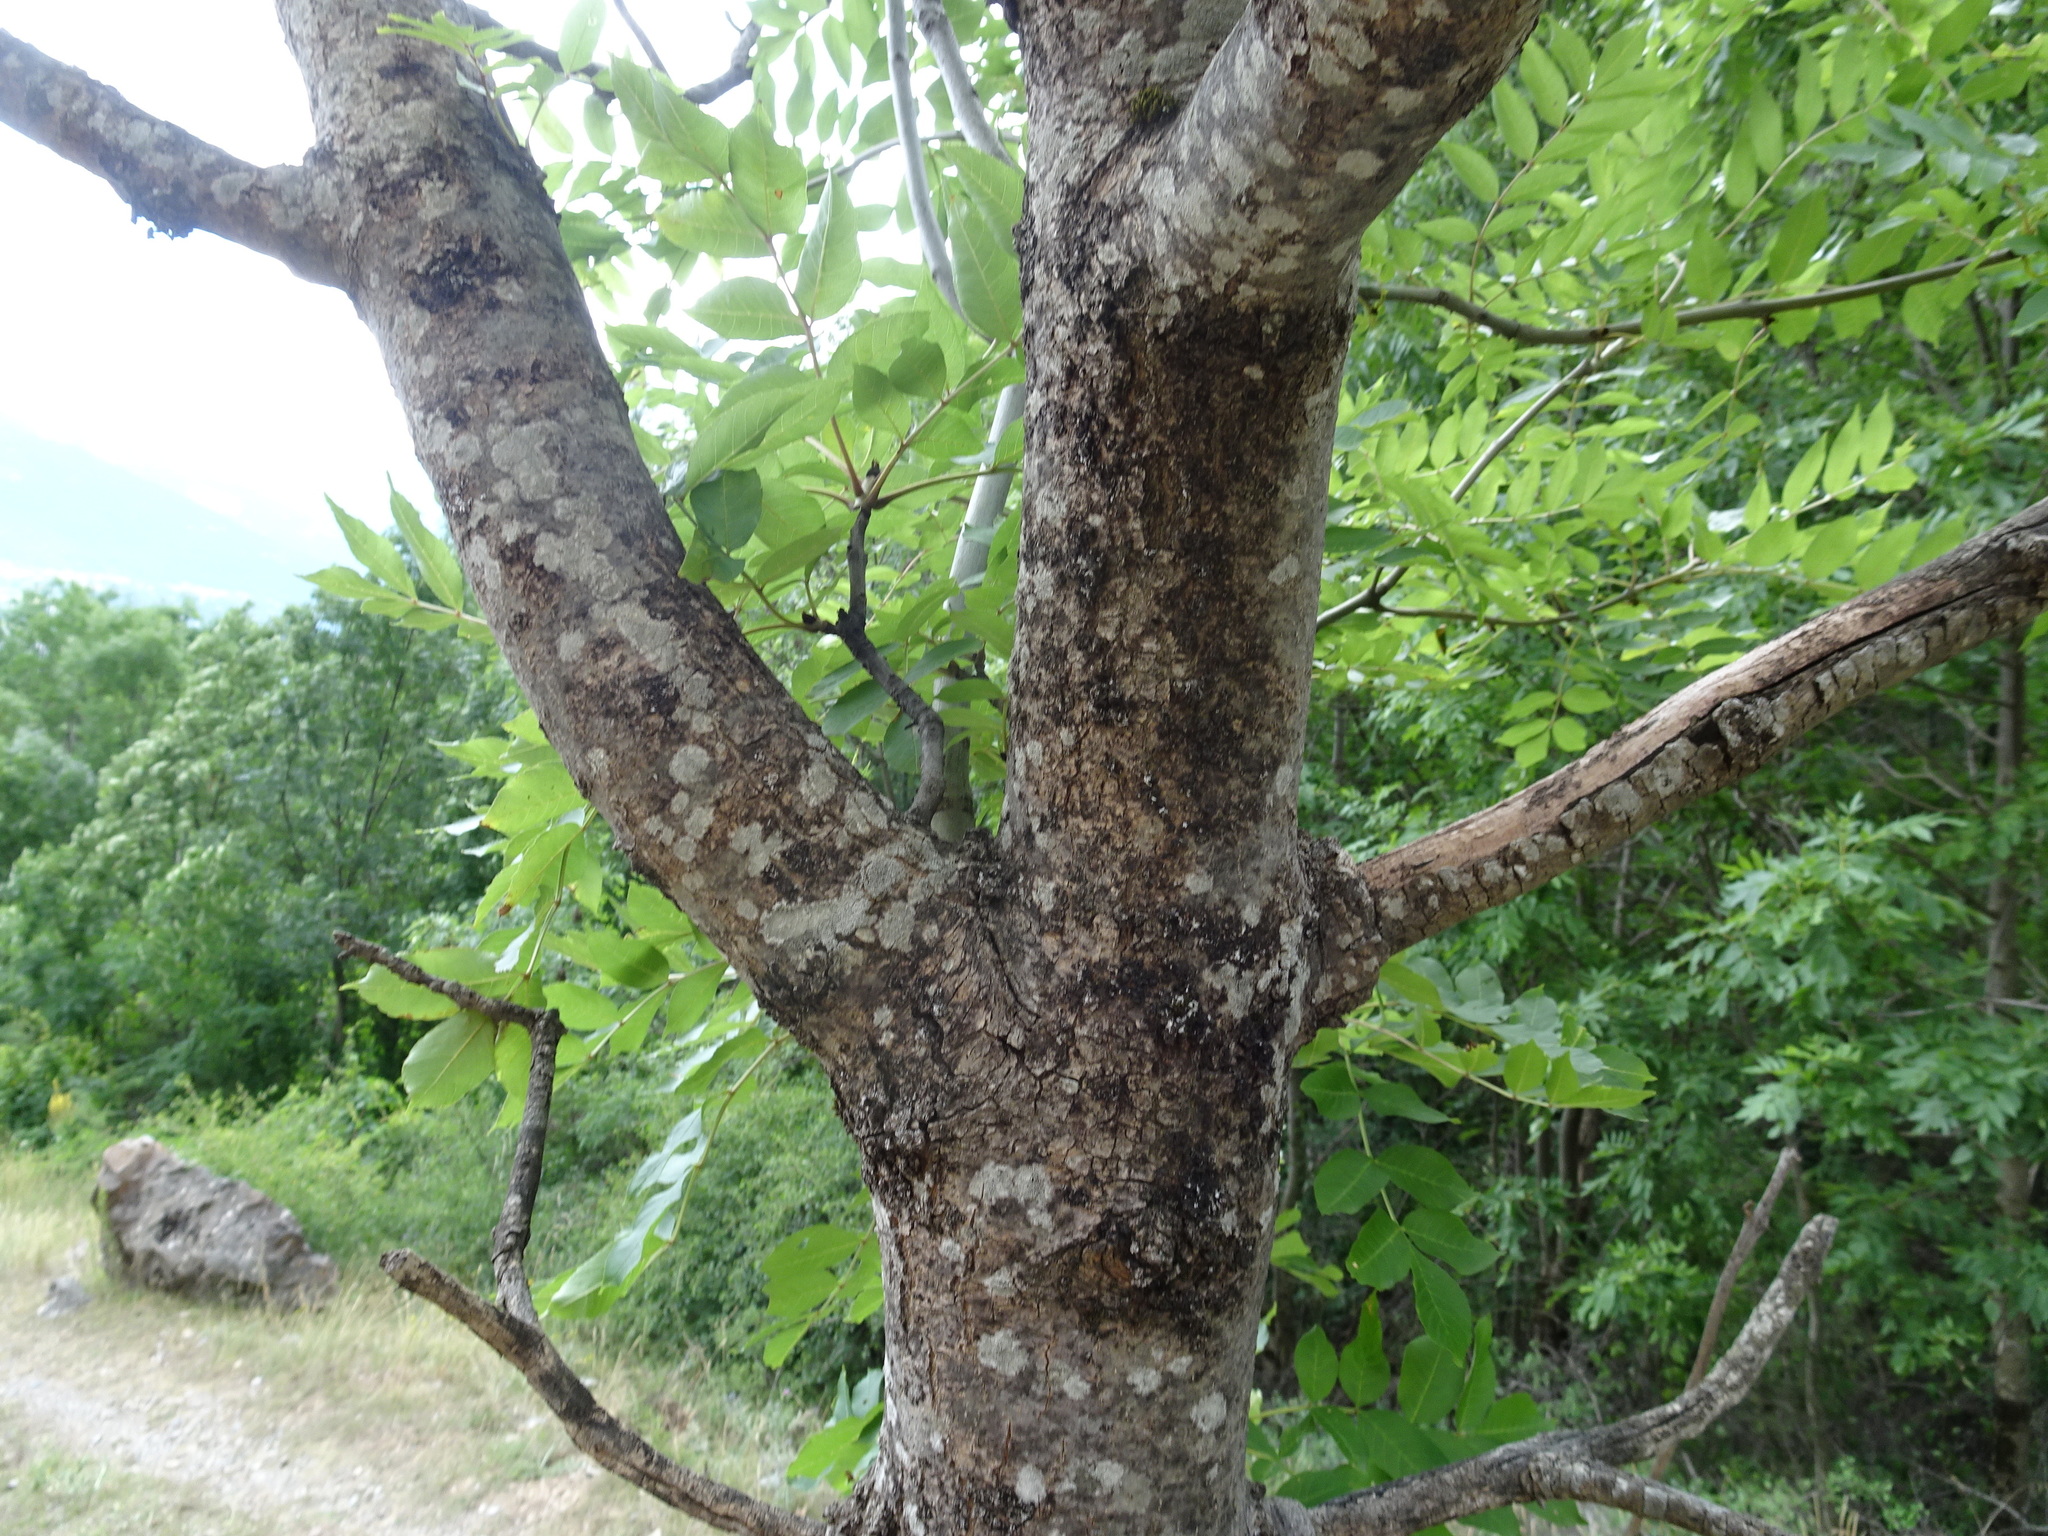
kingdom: Plantae
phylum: Tracheophyta
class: Magnoliopsida
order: Lamiales
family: Oleaceae
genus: Fraxinus
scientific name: Fraxinus excelsior
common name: European ash
